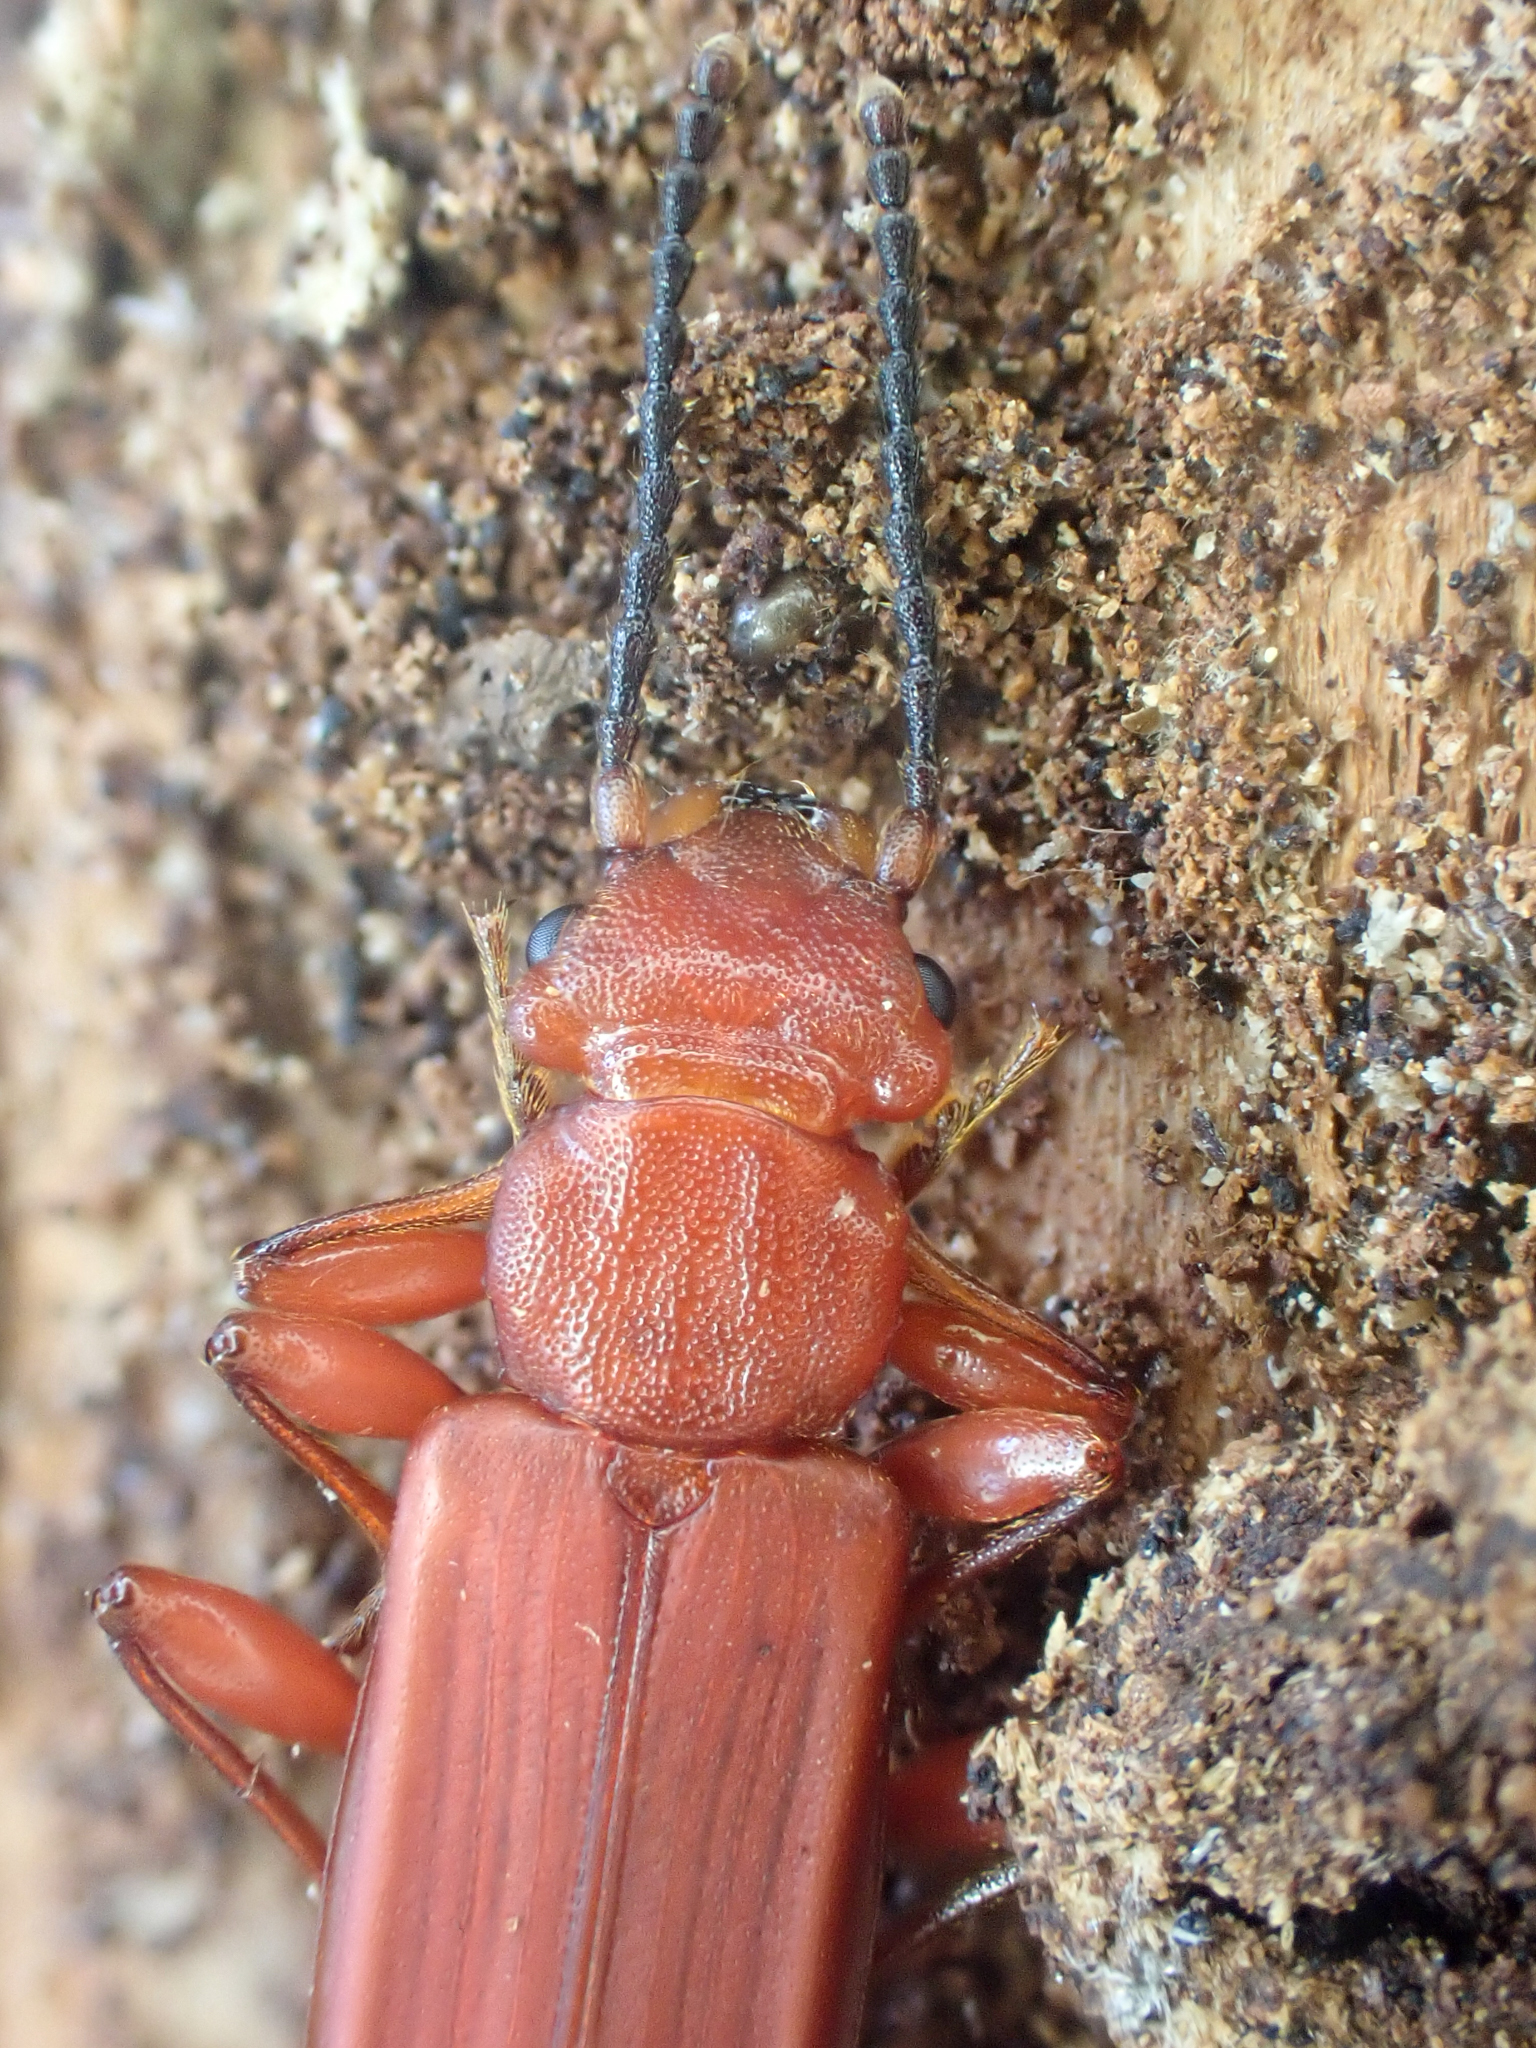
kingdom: Animalia
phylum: Arthropoda
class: Insecta
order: Coleoptera
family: Cucujidae
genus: Cucujus
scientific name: Cucujus clavipes
